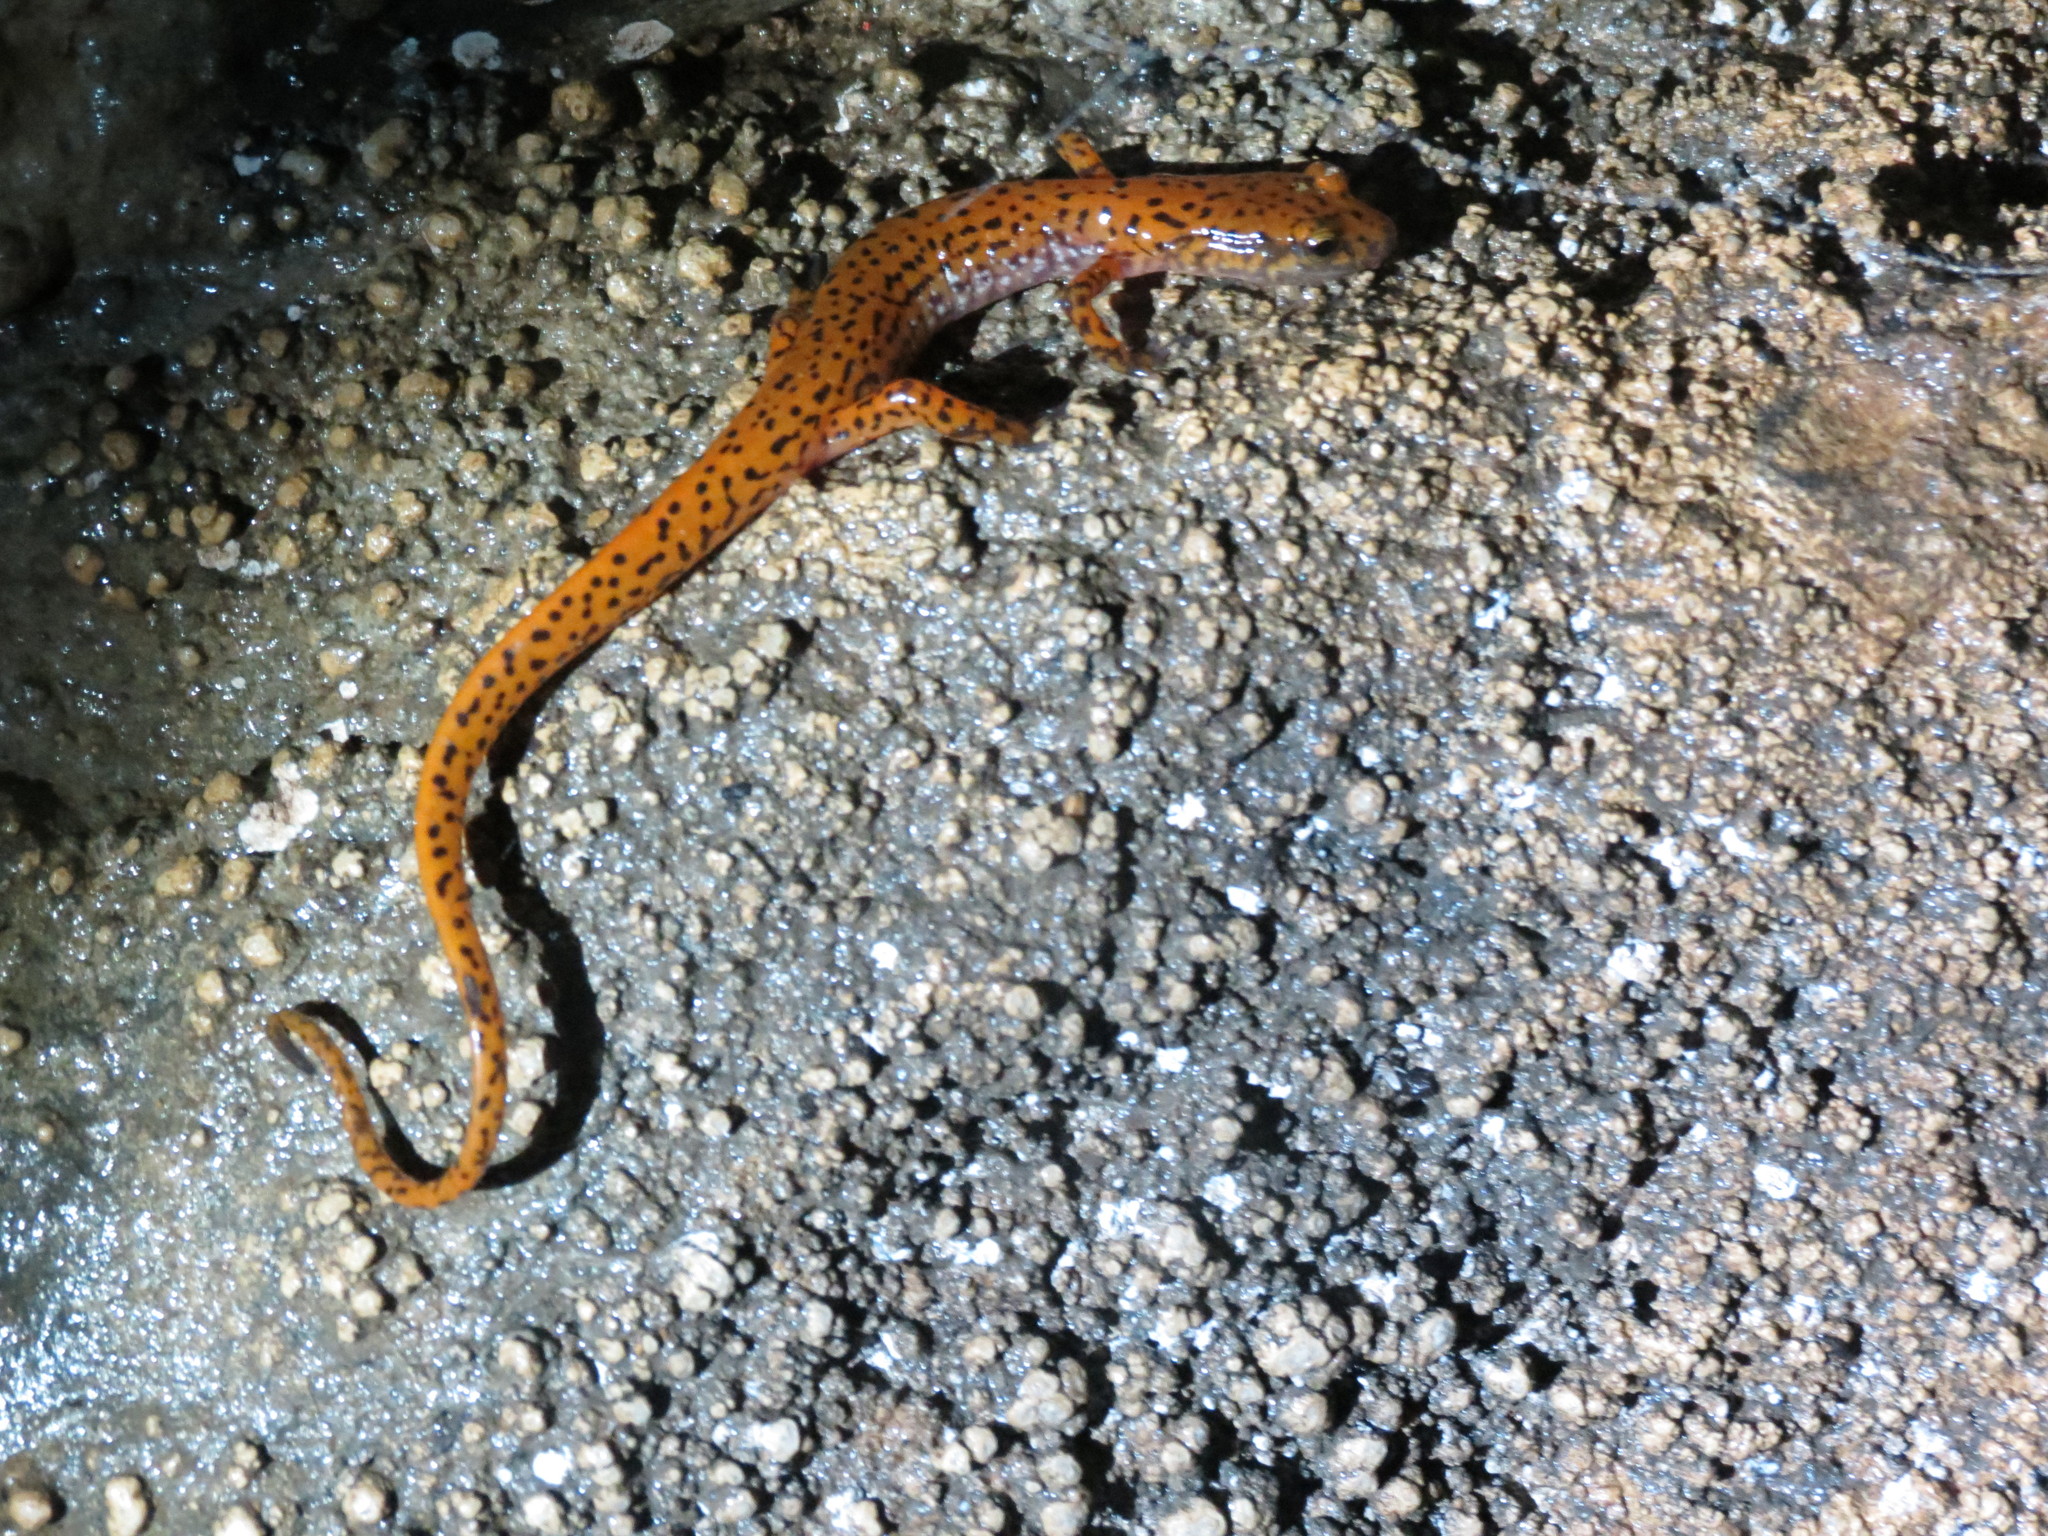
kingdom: Animalia
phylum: Chordata
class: Amphibia
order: Caudata
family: Plethodontidae
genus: Eurycea
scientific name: Eurycea lucifuga
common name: Cave salamander
